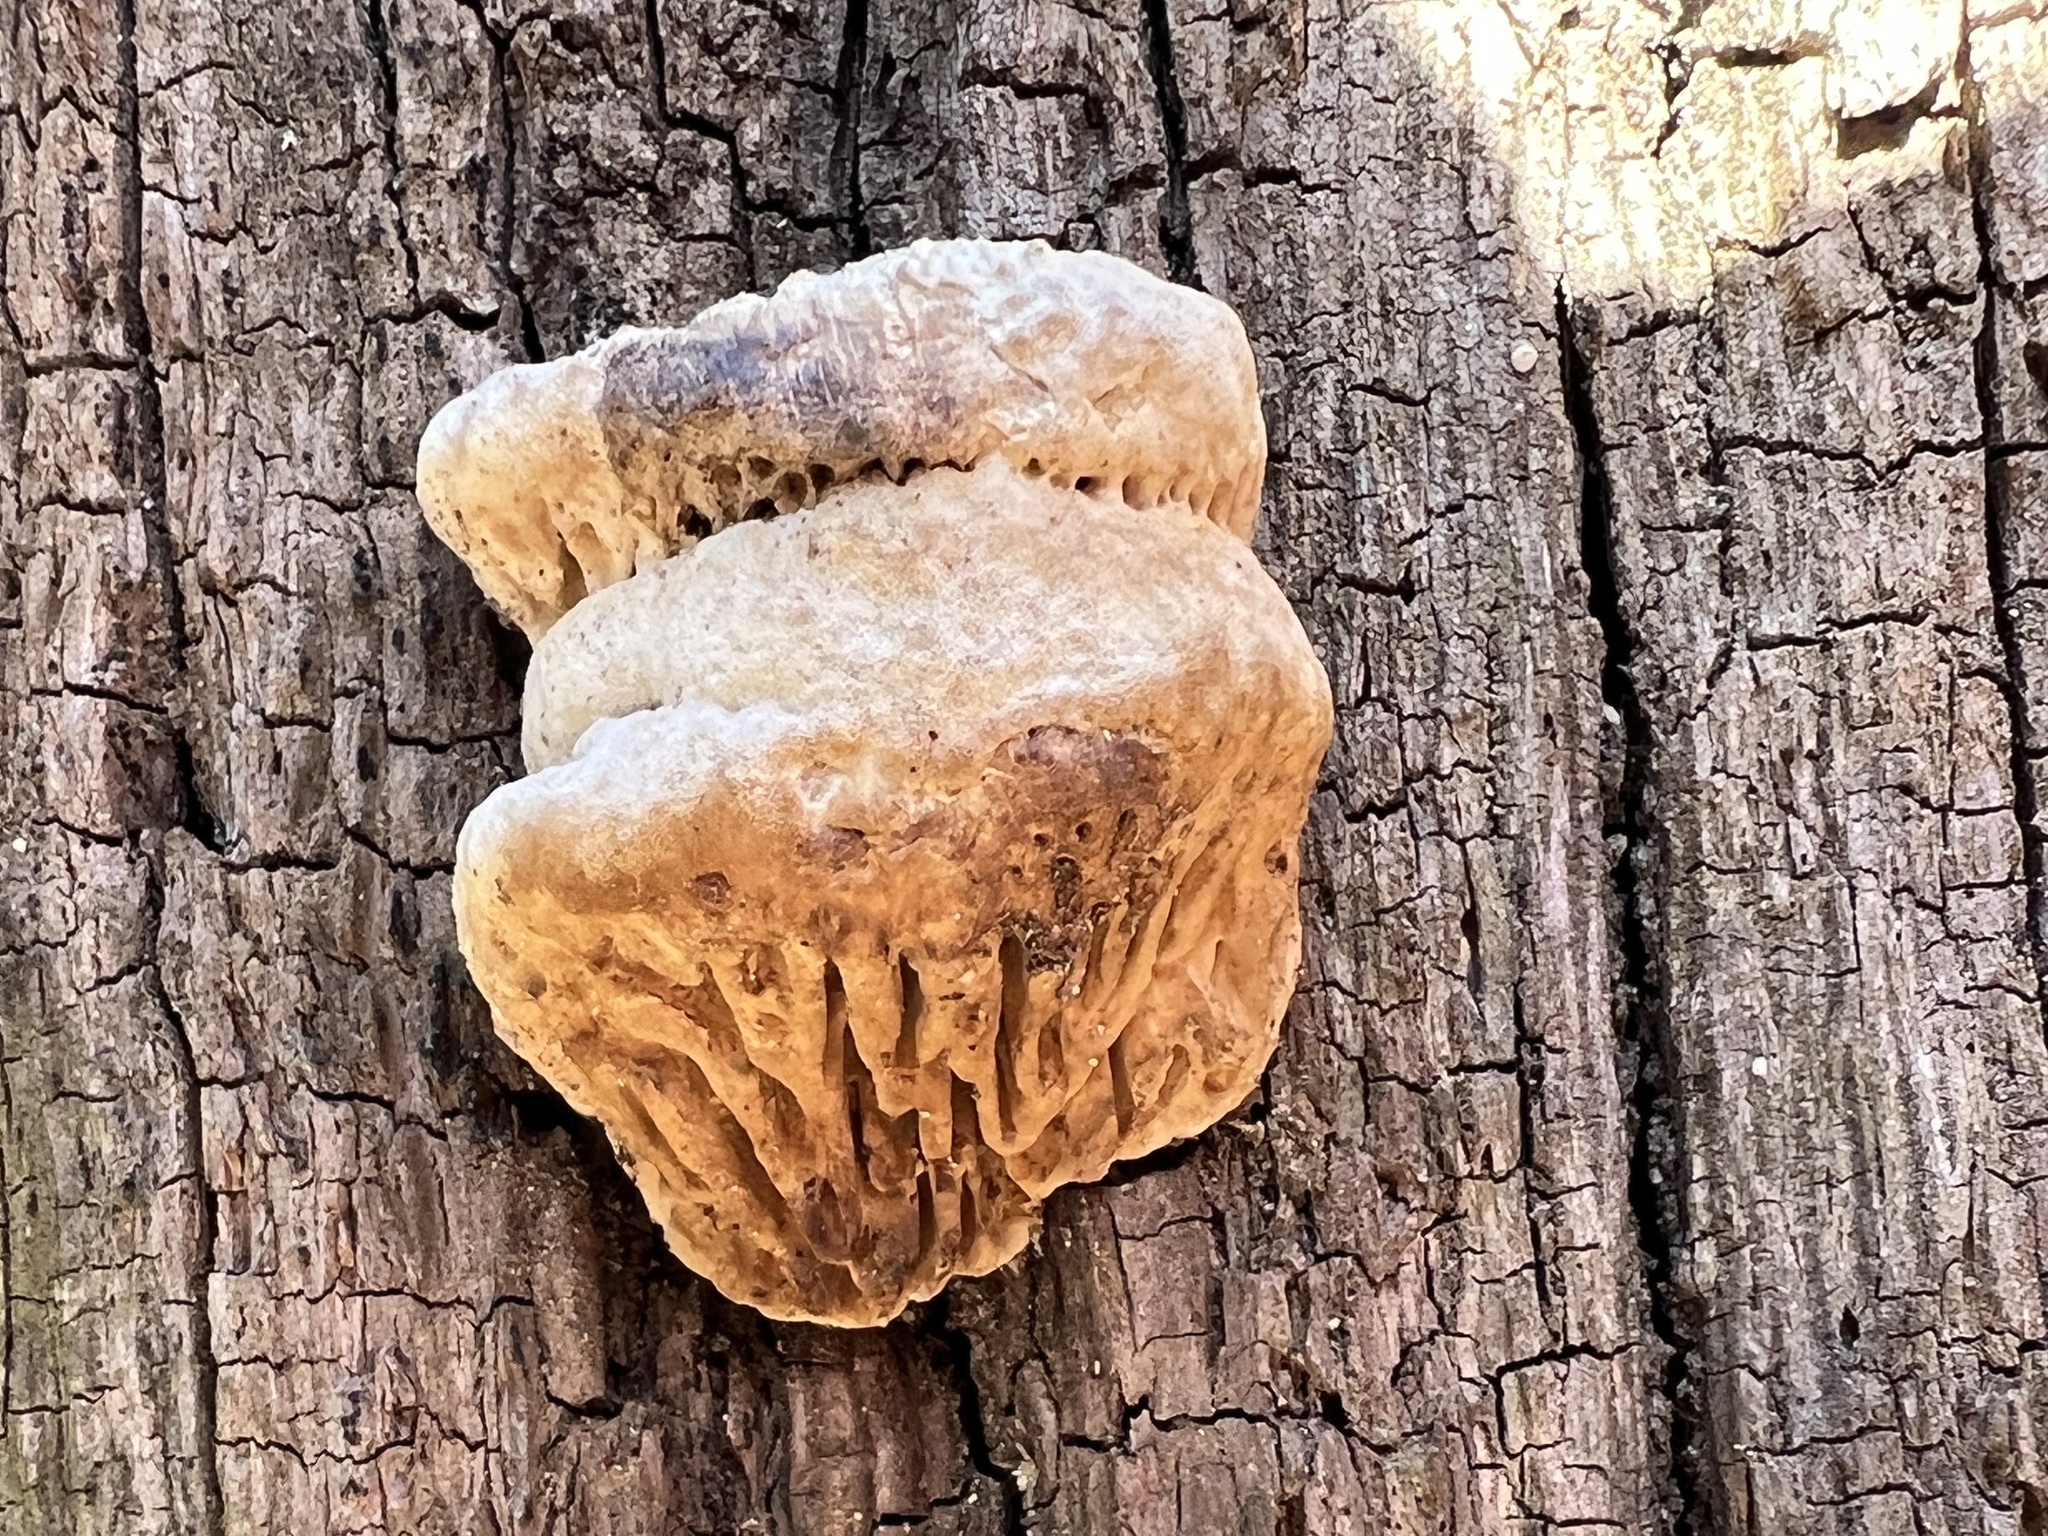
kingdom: Fungi
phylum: Basidiomycota
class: Agaricomycetes
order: Polyporales
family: Fomitopsidaceae
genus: Fomitopsis
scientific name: Fomitopsis
